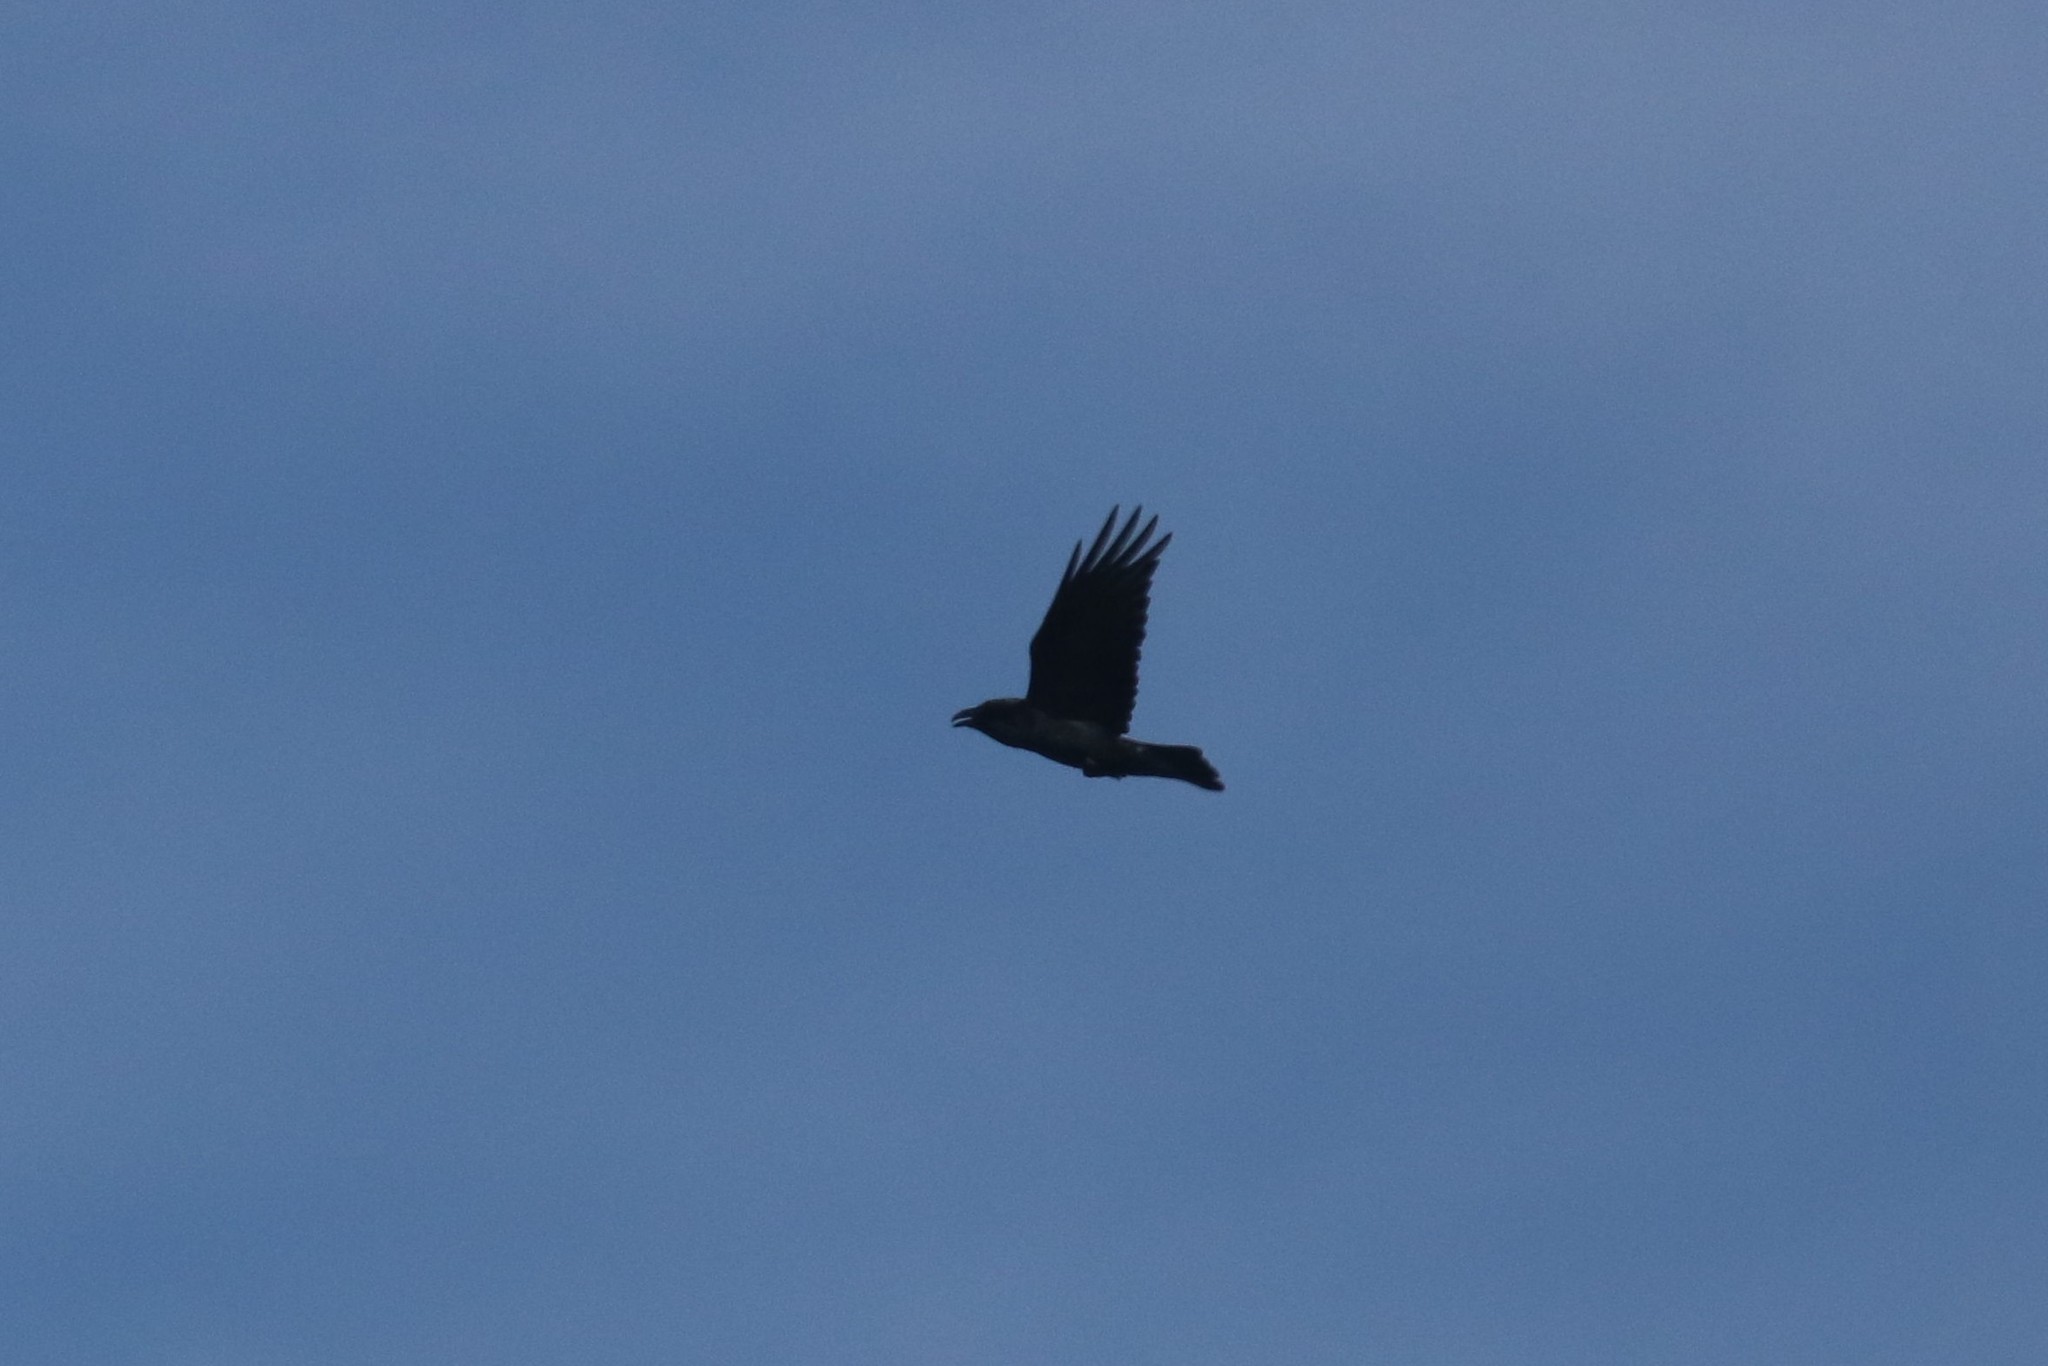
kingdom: Animalia
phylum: Chordata
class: Aves
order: Passeriformes
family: Corvidae
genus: Corvus
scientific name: Corvus corax
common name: Common raven
